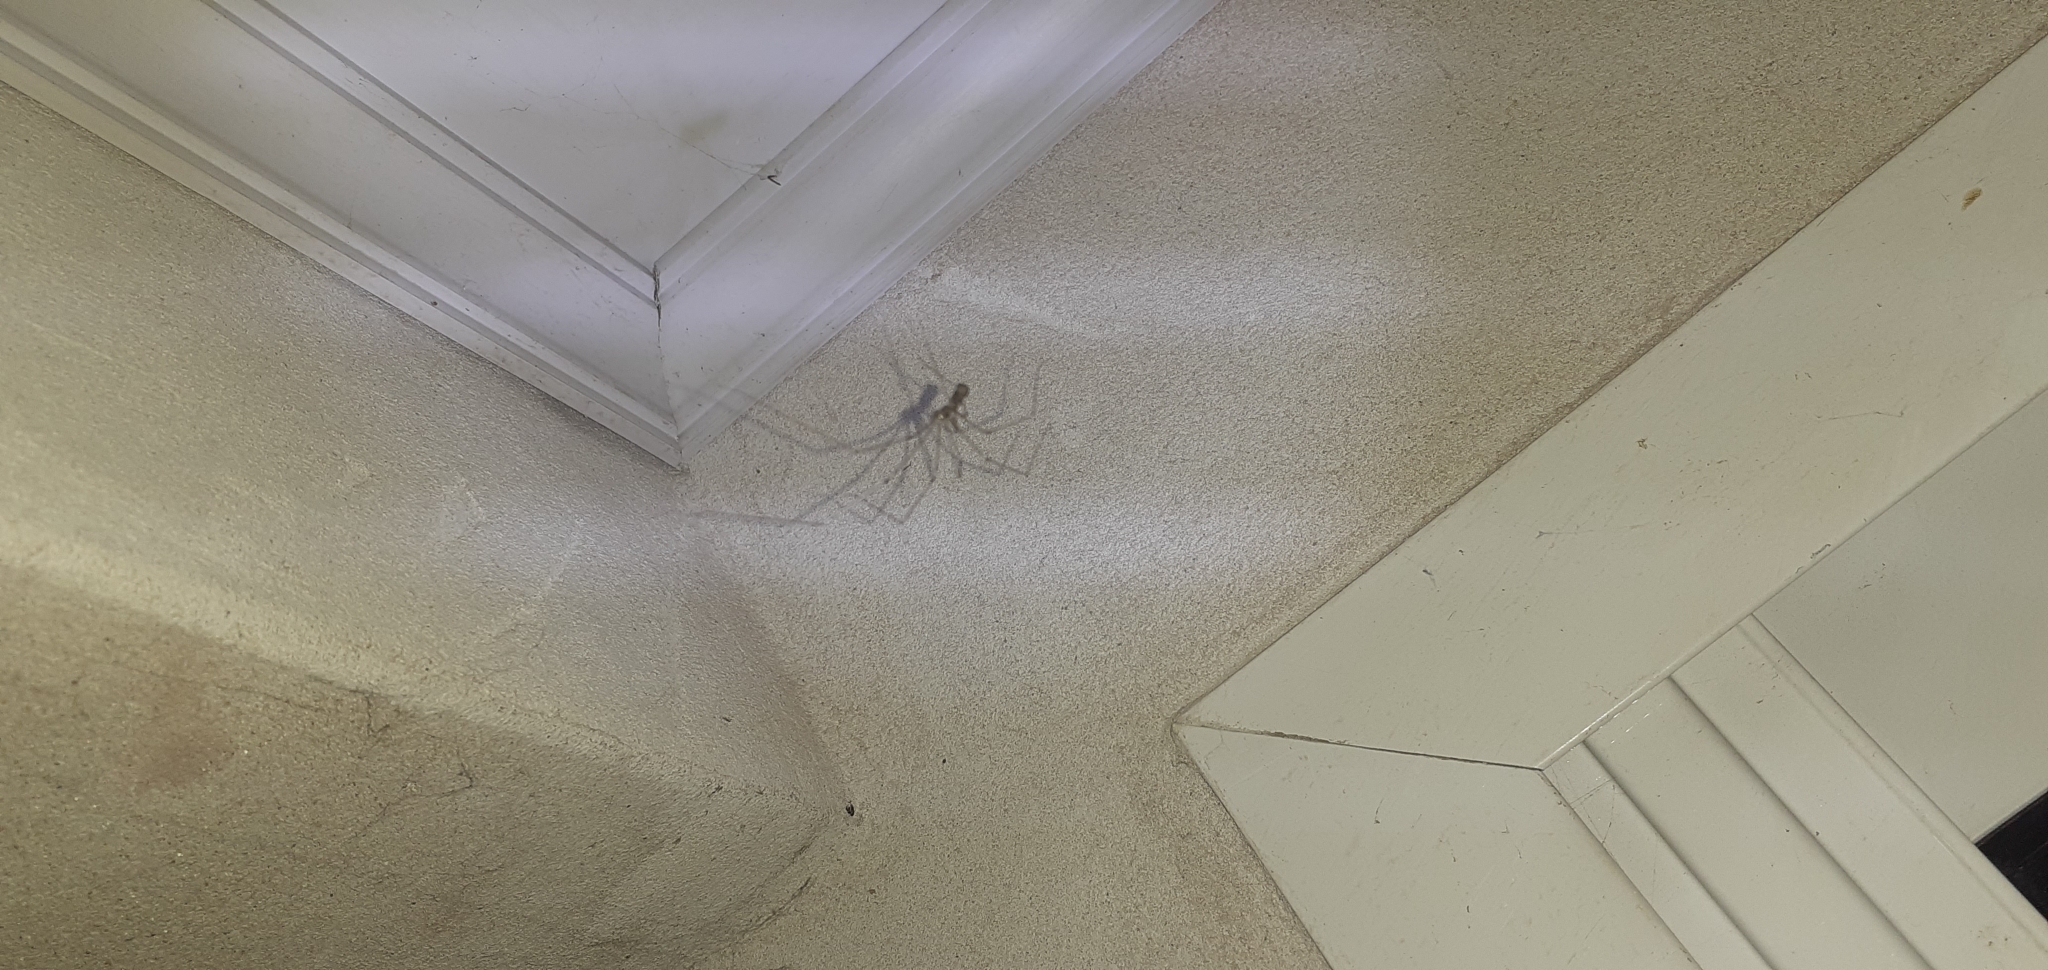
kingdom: Animalia
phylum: Arthropoda
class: Arachnida
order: Araneae
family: Pholcidae
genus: Pholcus
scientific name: Pholcus phalangioides
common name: Longbodied cellar spider
